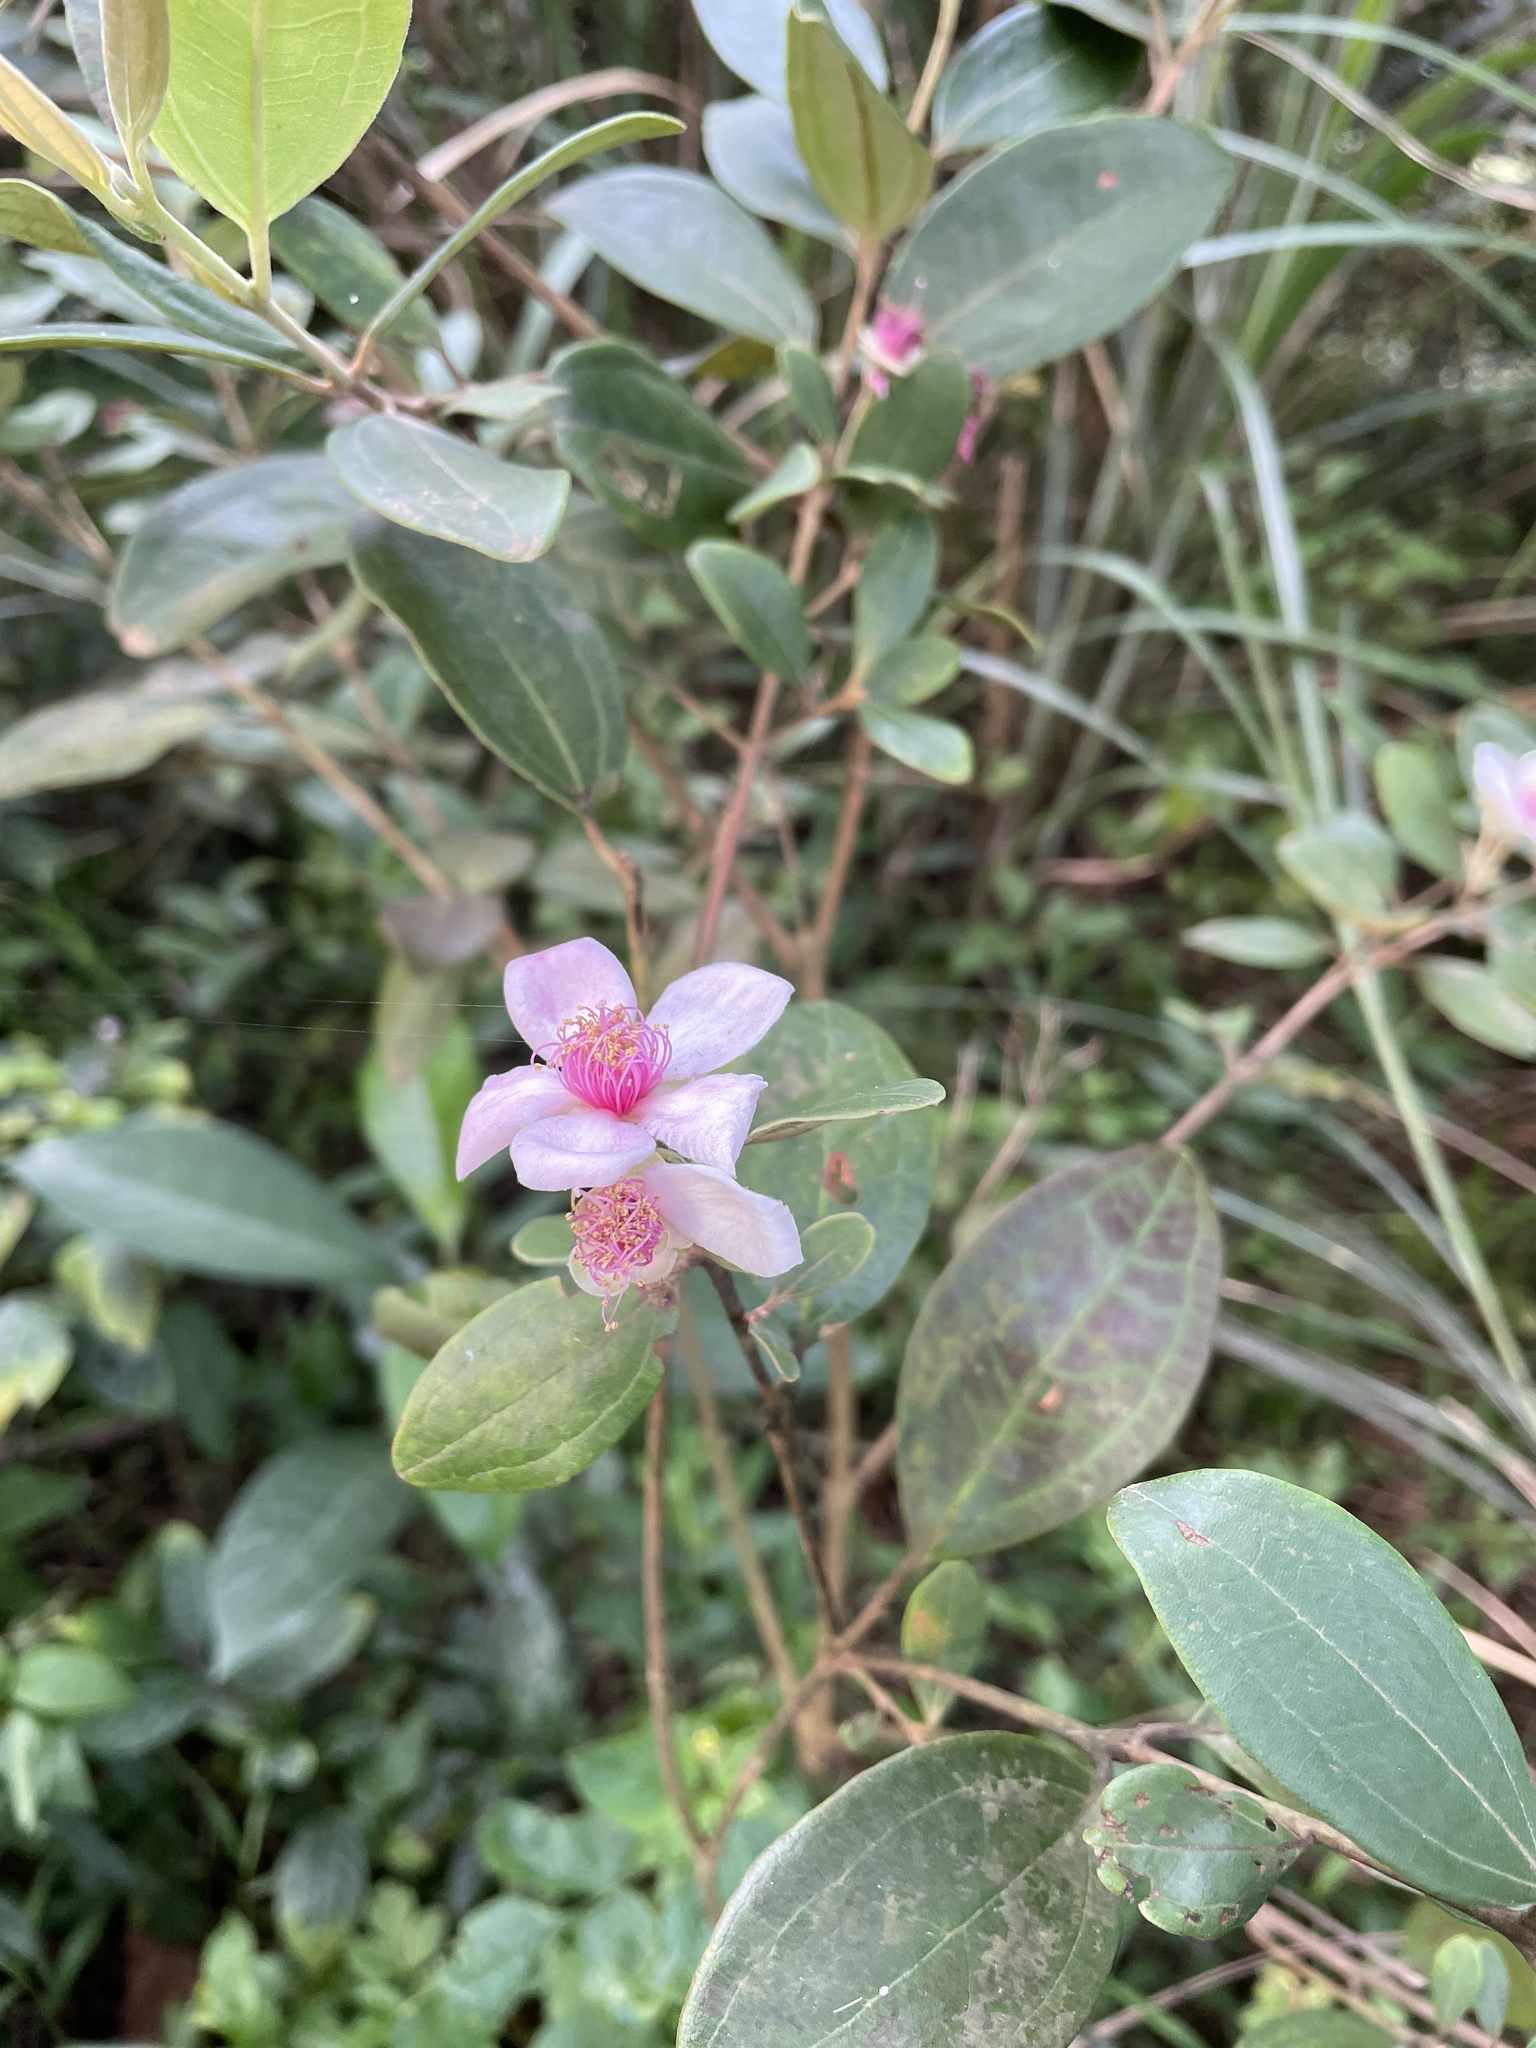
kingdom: Plantae
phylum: Tracheophyta
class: Magnoliopsida
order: Myrtales
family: Myrtaceae
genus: Rhodomyrtus
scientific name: Rhodomyrtus tomentosa
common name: Rose myrtle
